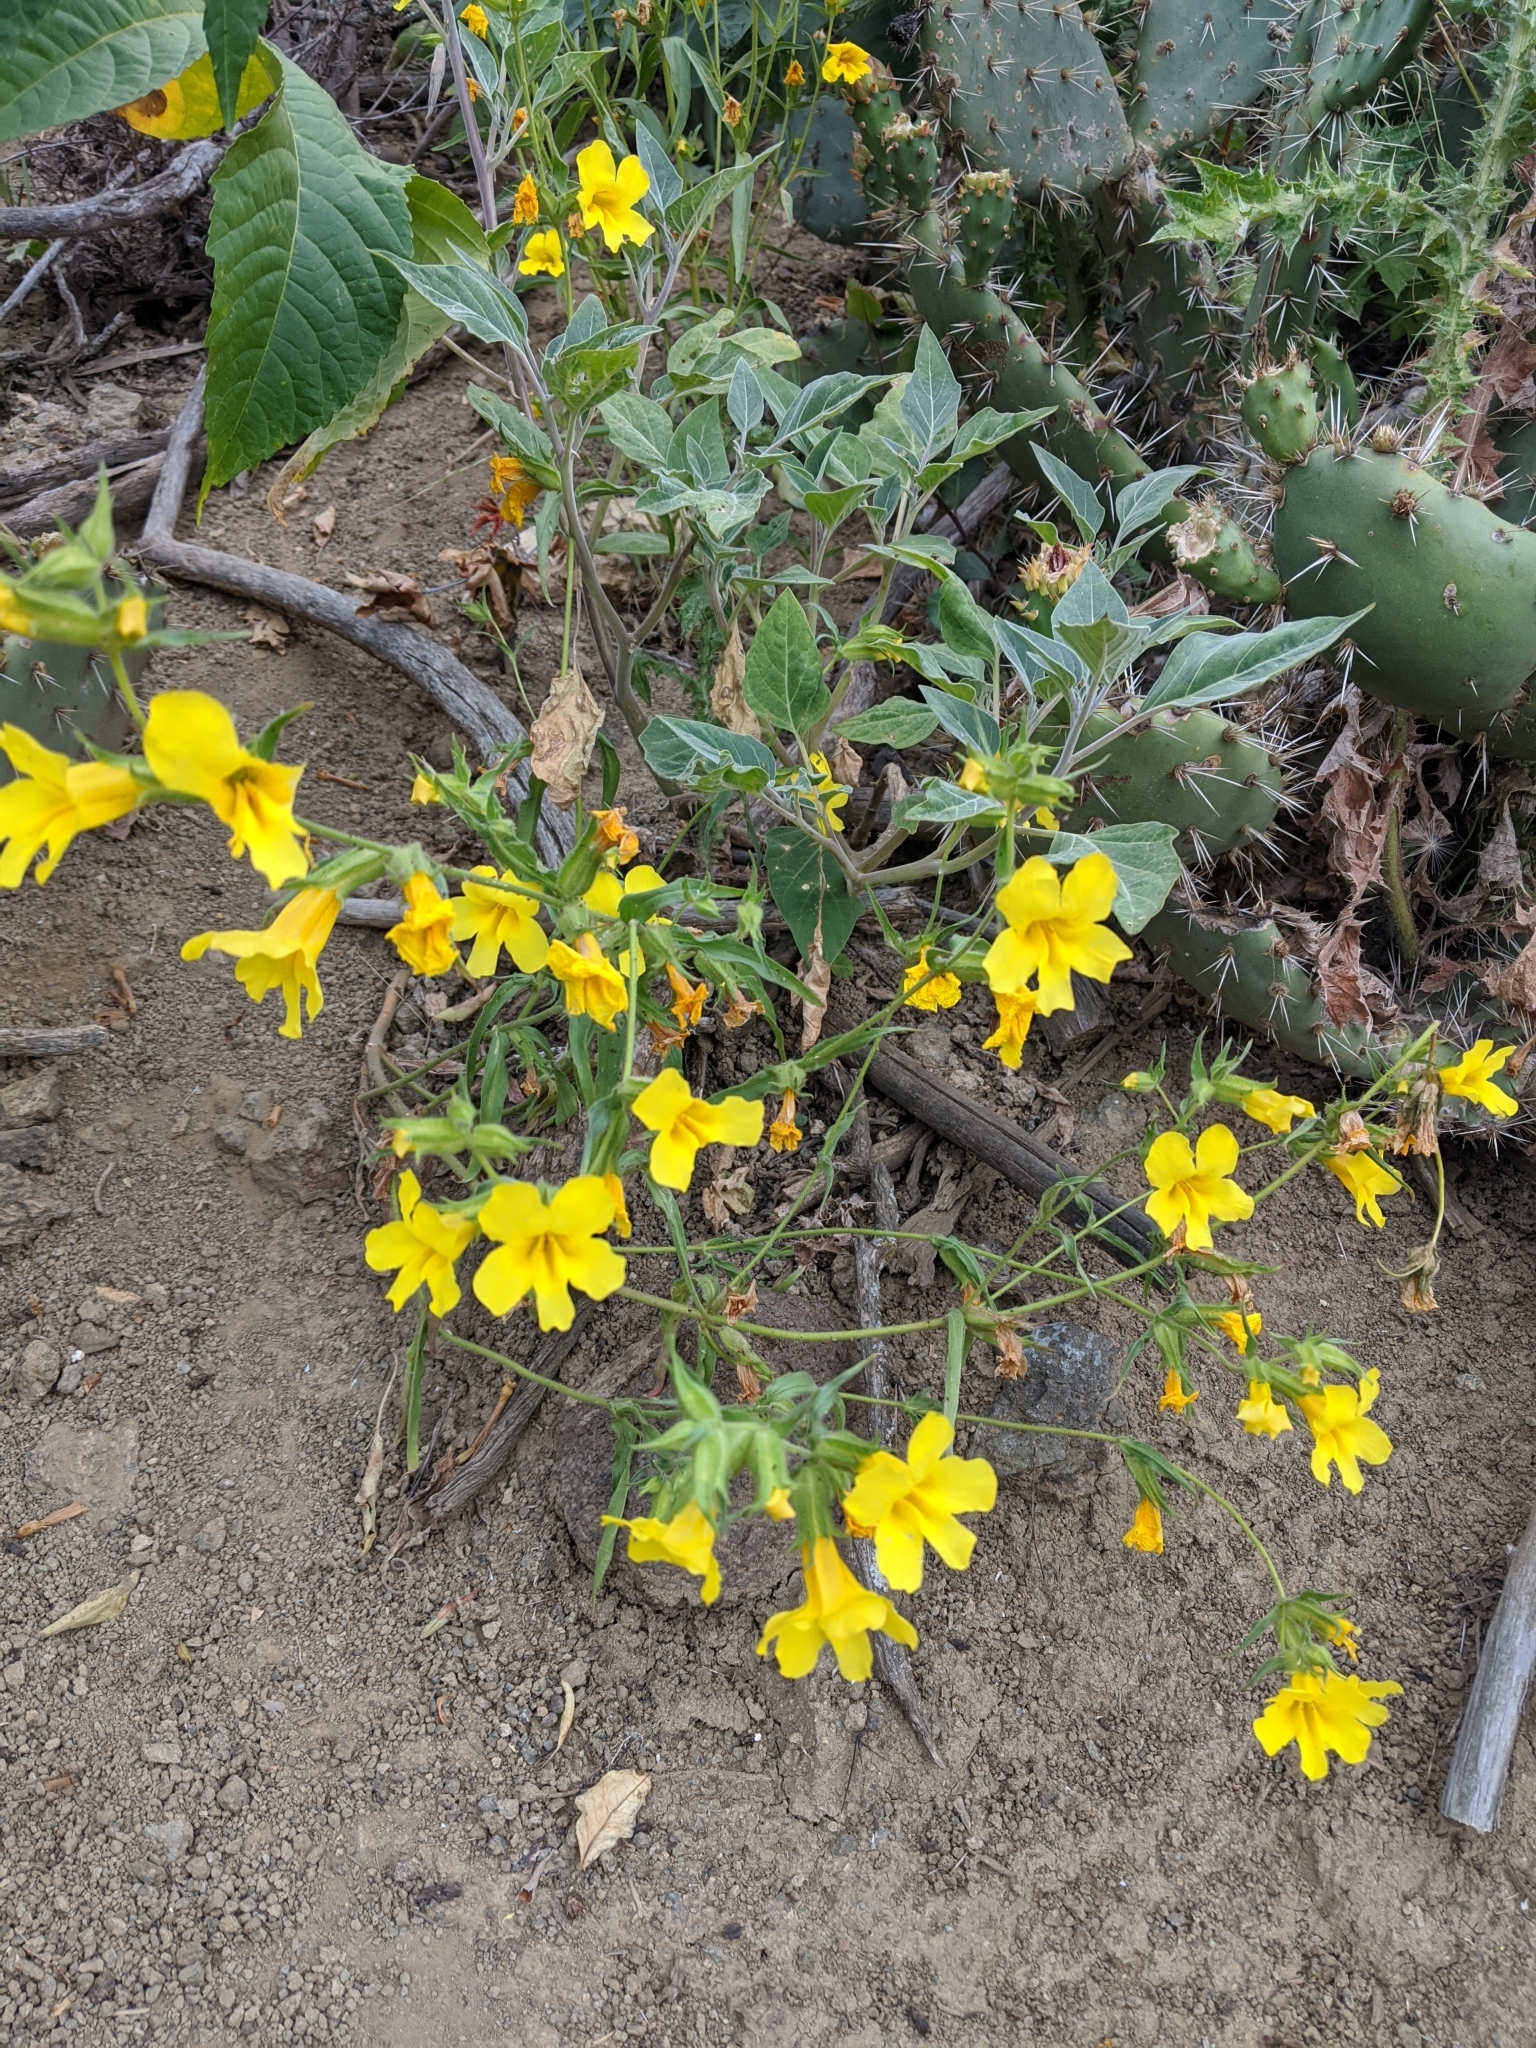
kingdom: Plantae
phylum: Tracheophyta
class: Magnoliopsida
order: Lamiales
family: Phrymaceae
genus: Diplacus
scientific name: Diplacus brevipes
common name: Wide-throat yellow monkey-flower
